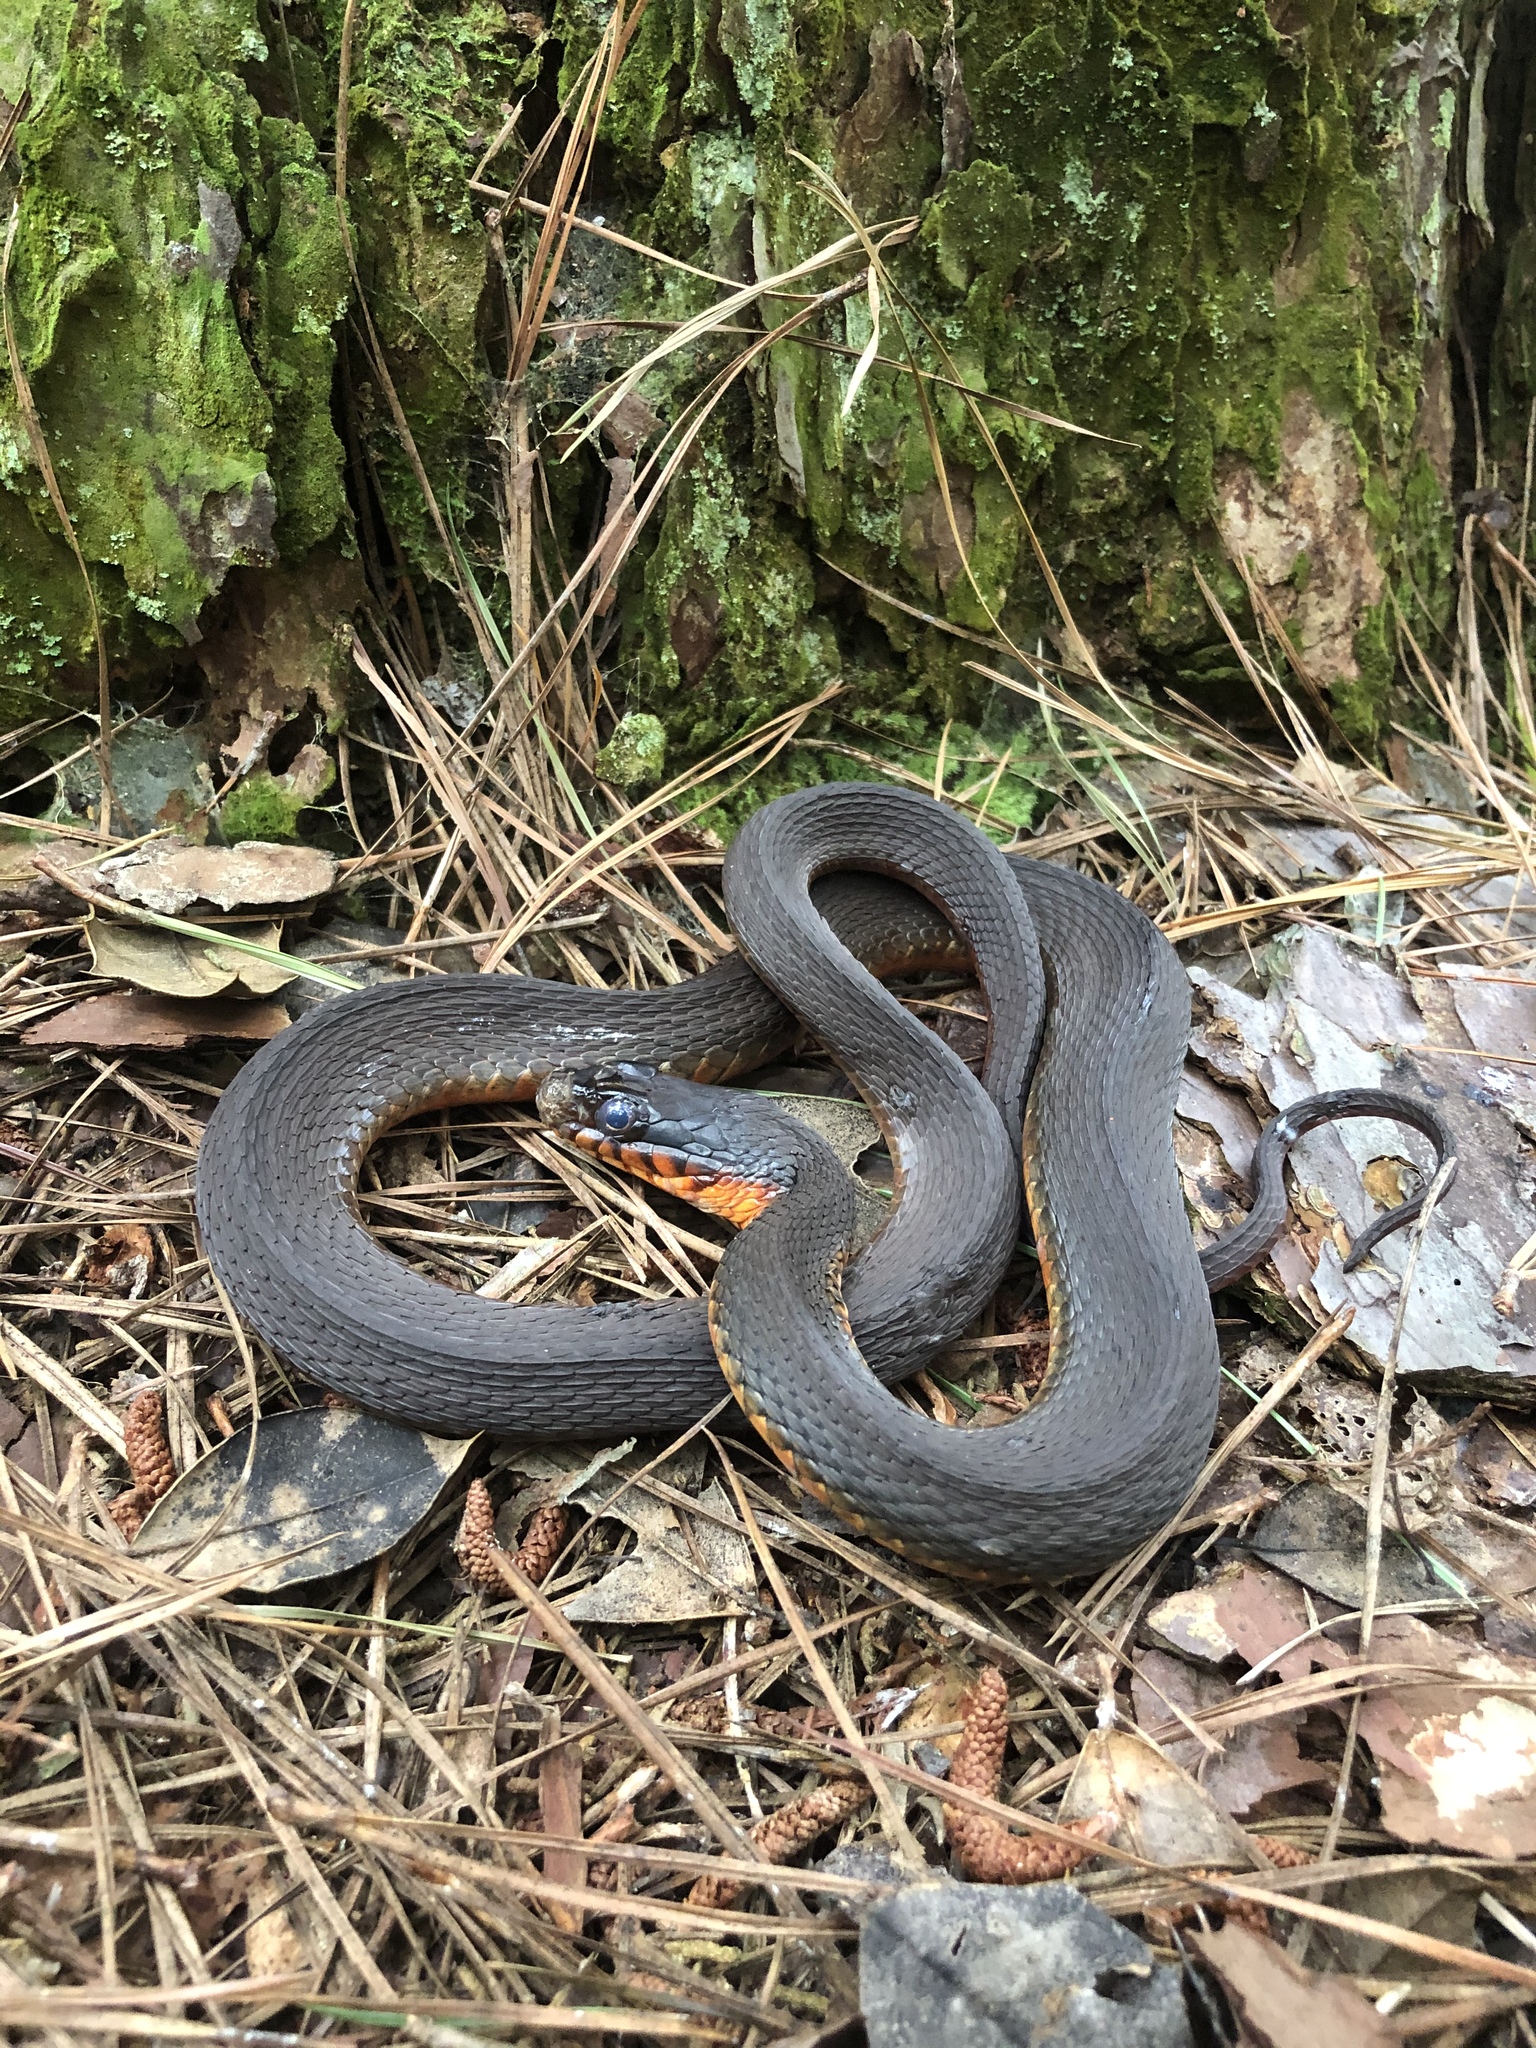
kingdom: Animalia
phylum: Chordata
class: Squamata
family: Colubridae
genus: Nerodia
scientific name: Nerodia erythrogaster
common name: Plainbelly water snake
